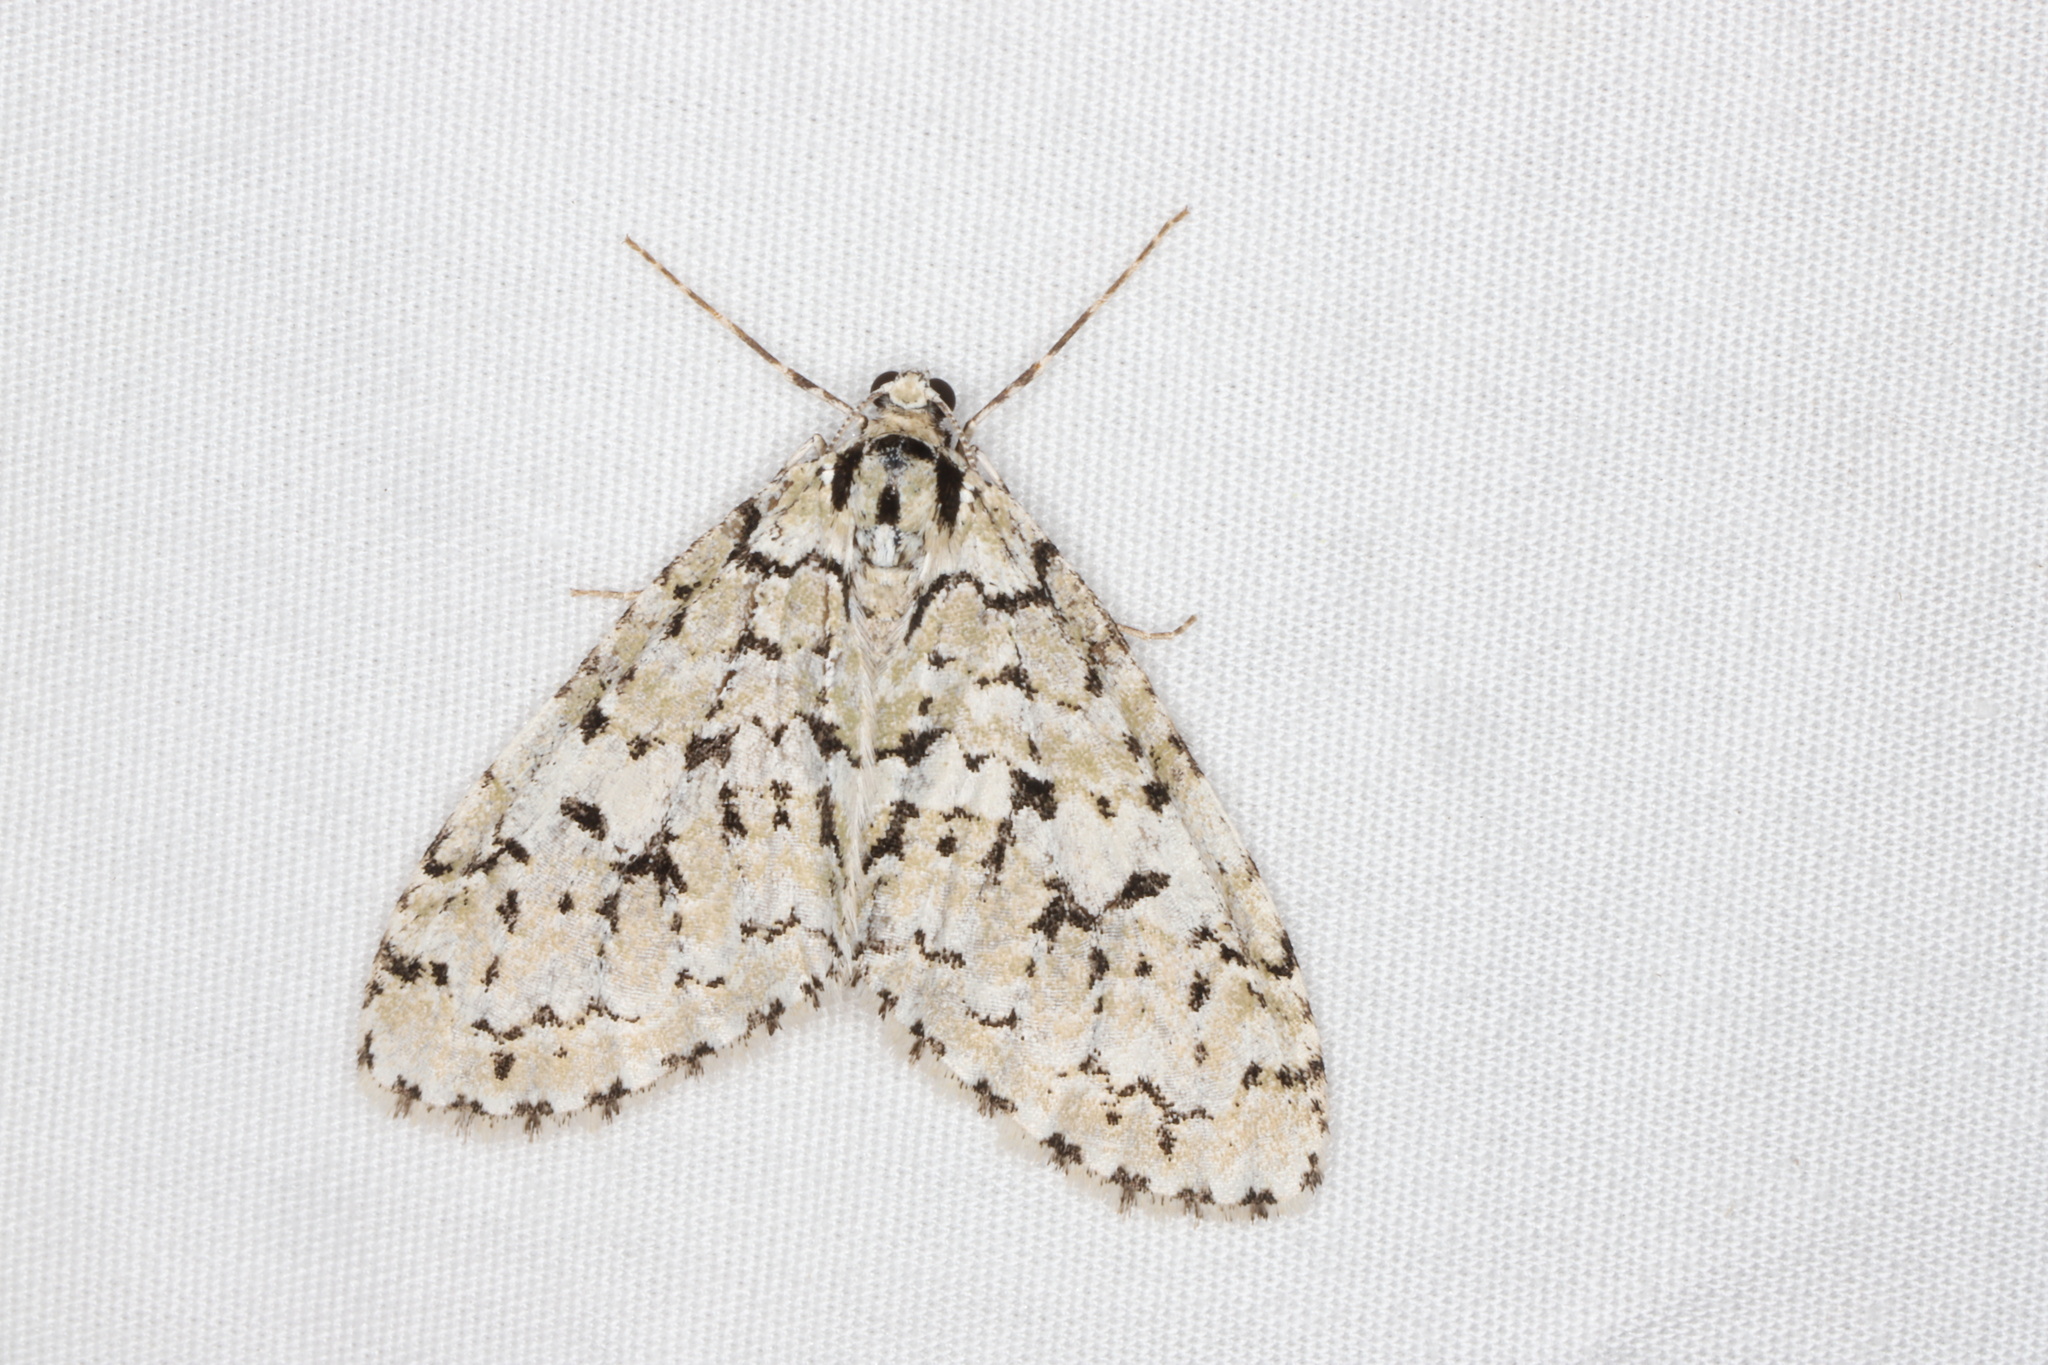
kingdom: Animalia
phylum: Arthropoda
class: Insecta
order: Lepidoptera
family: Geometridae
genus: Cladara
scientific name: Cladara atroliturata
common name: Scribbler
